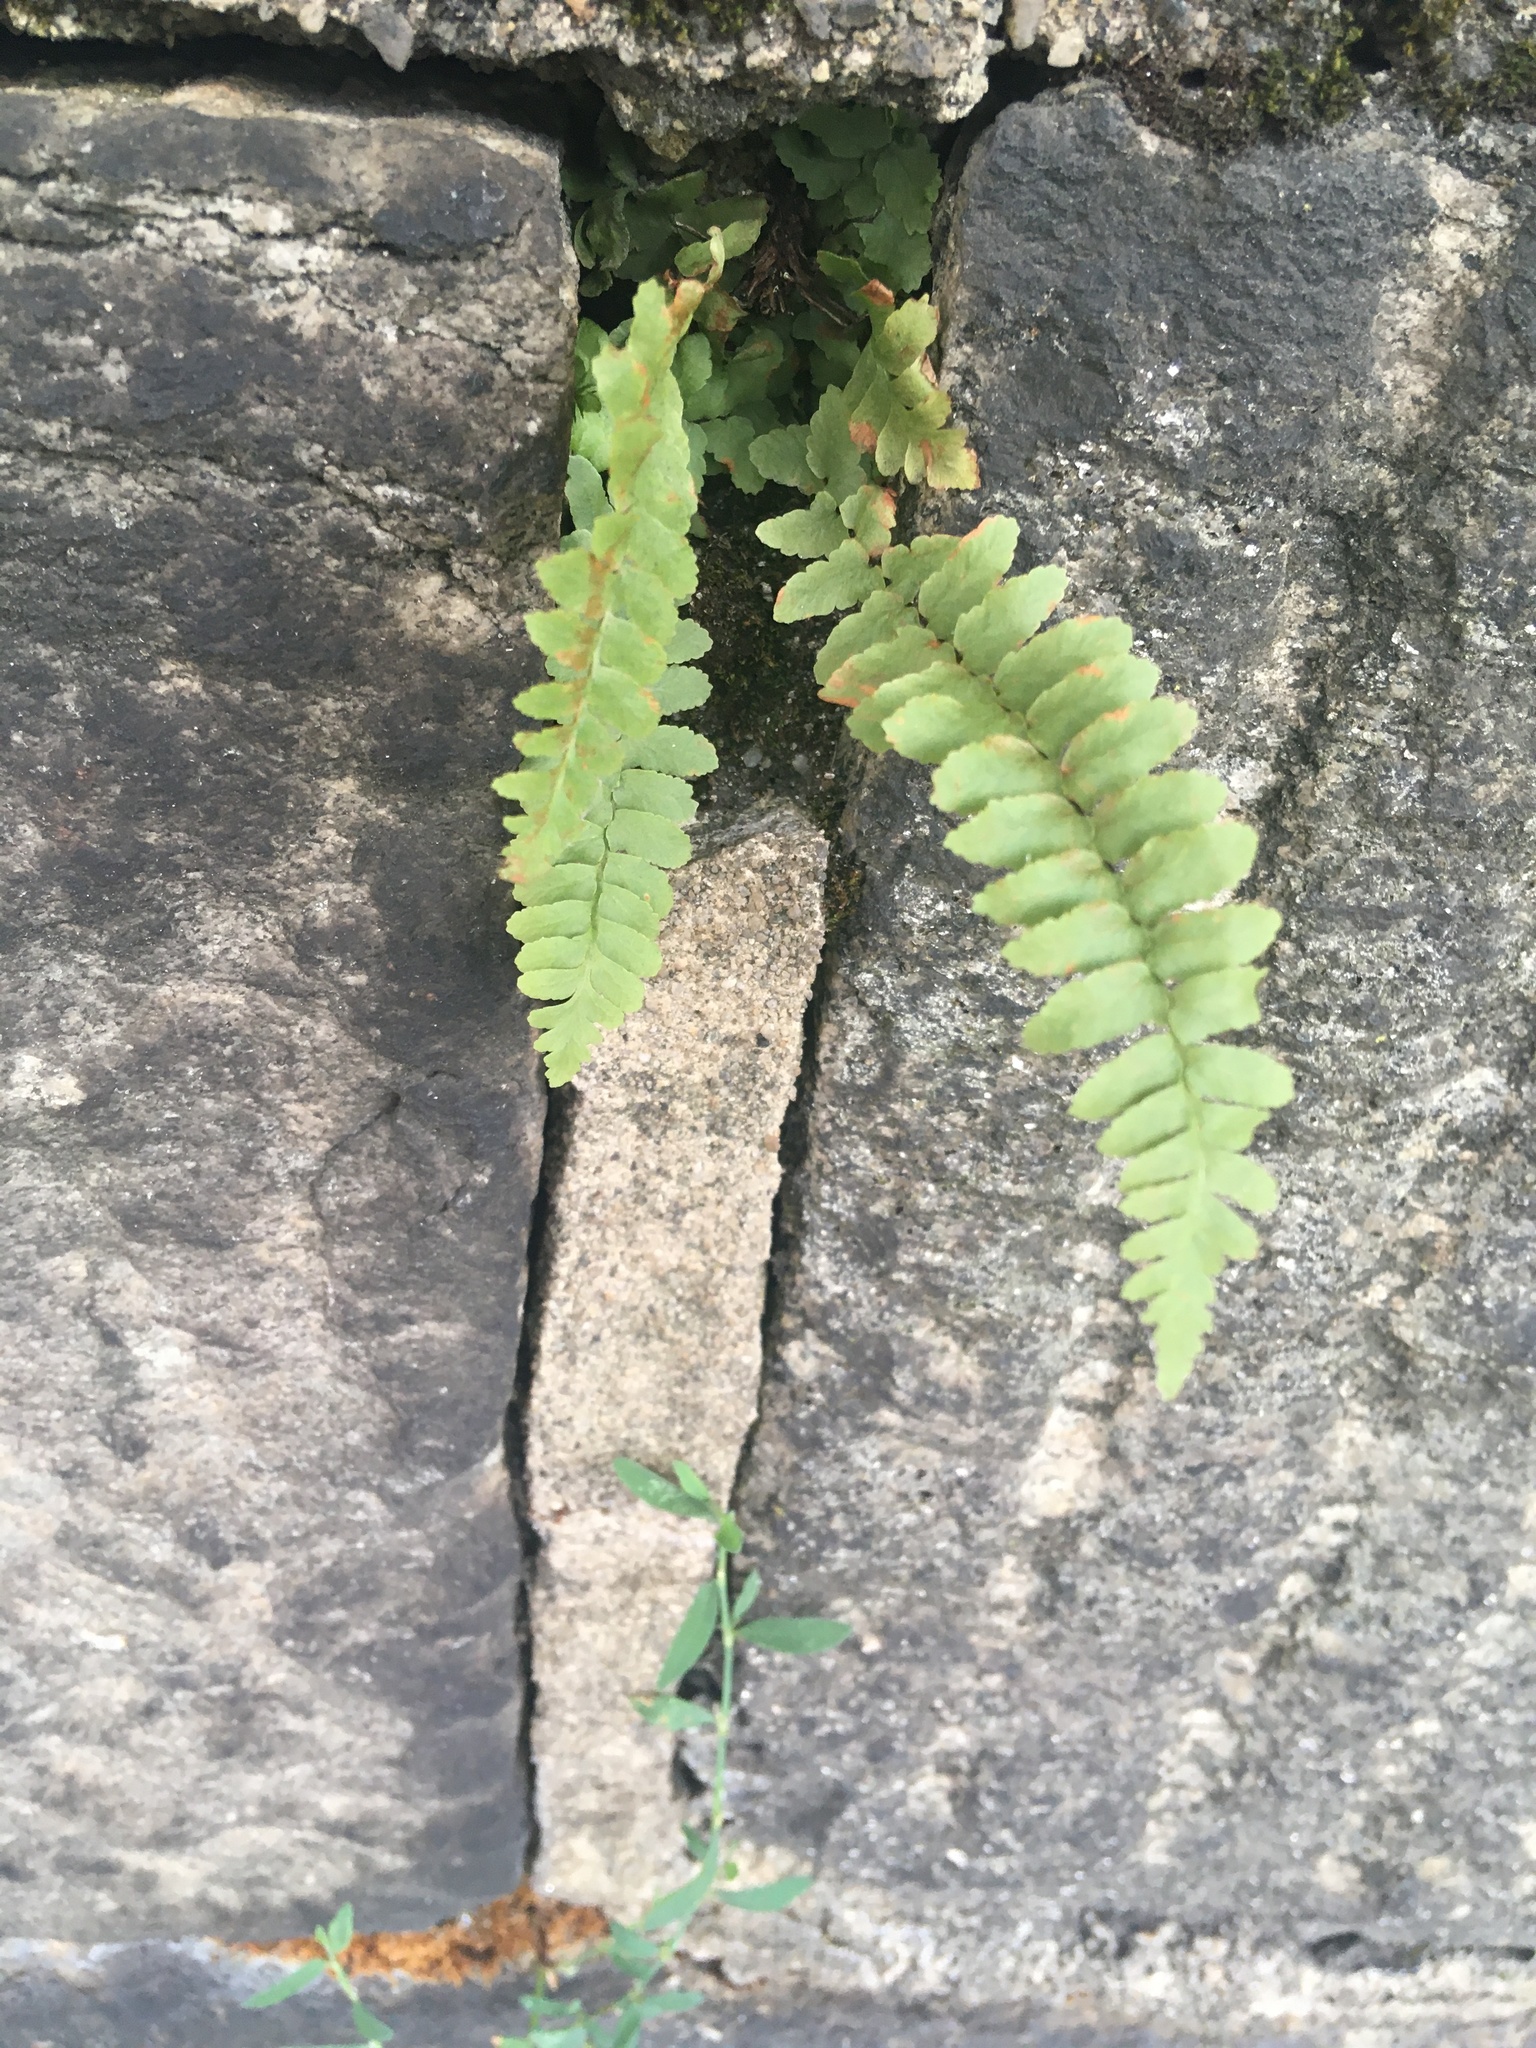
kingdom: Plantae
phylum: Tracheophyta
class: Polypodiopsida
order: Polypodiales
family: Aspleniaceae
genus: Asplenium
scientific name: Asplenium platyneuron
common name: Ebony spleenwort
